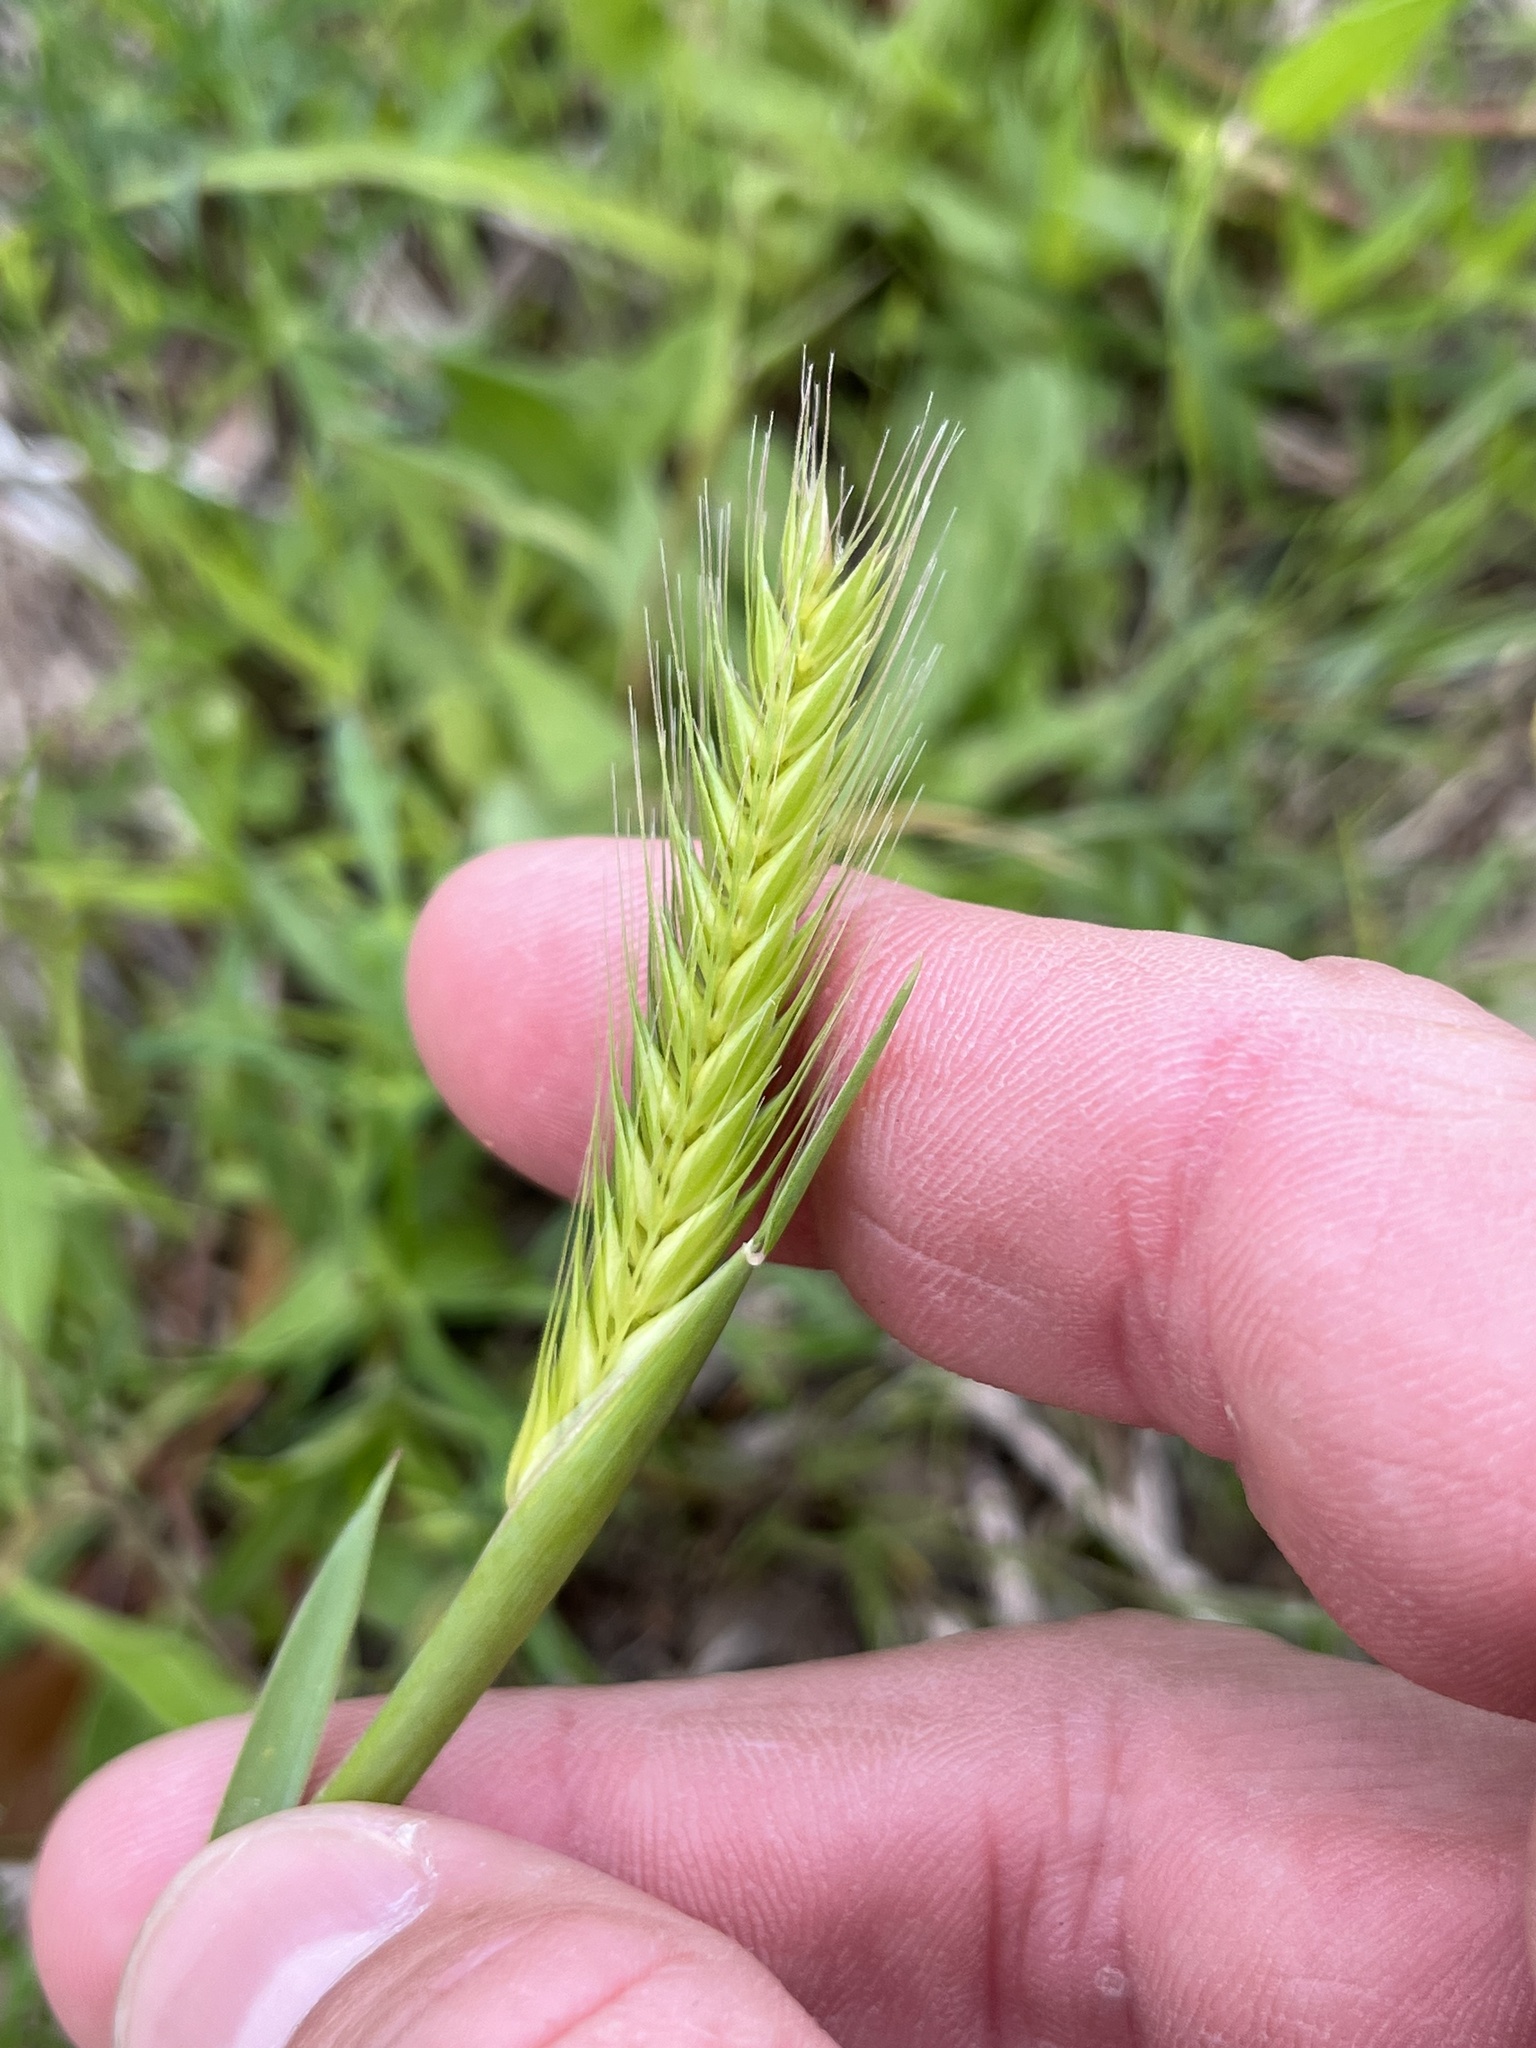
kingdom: Plantae
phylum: Tracheophyta
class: Liliopsida
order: Poales
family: Poaceae
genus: Hordeum
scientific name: Hordeum pusillum
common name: Little barley
